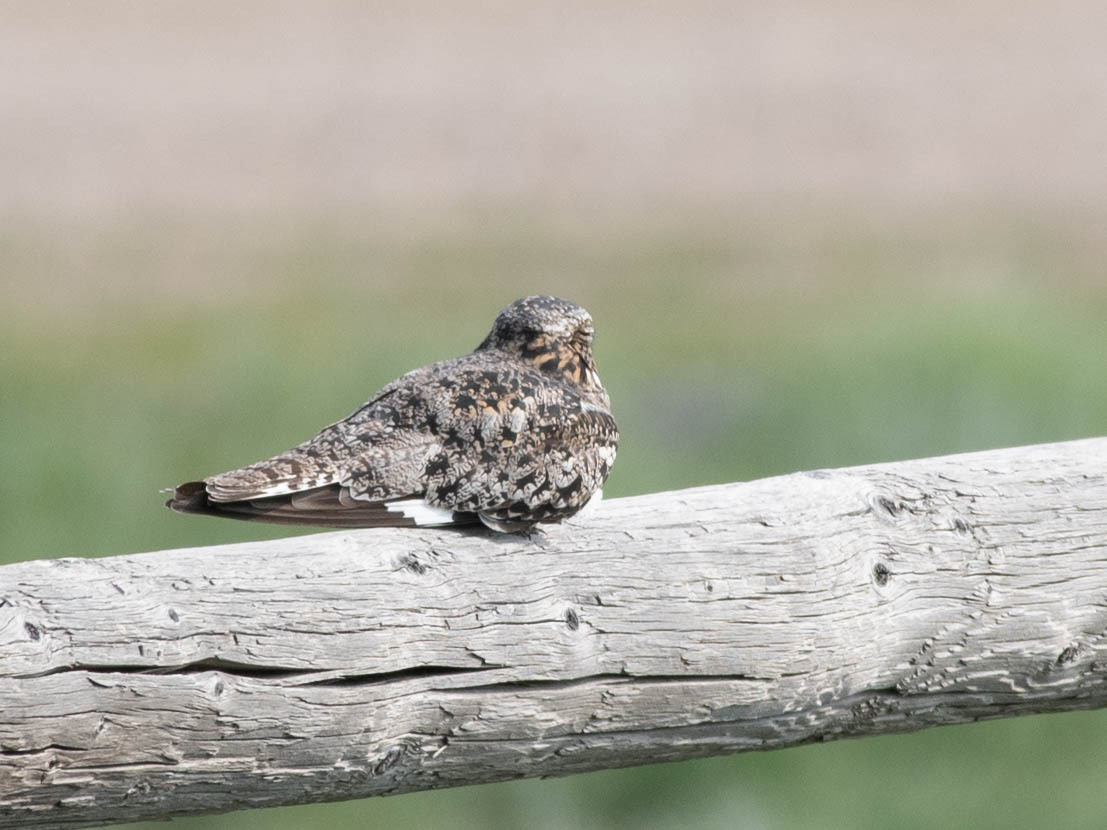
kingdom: Animalia
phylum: Chordata
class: Aves
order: Caprimulgiformes
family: Caprimulgidae
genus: Chordeiles
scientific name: Chordeiles minor
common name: Common nighthawk
